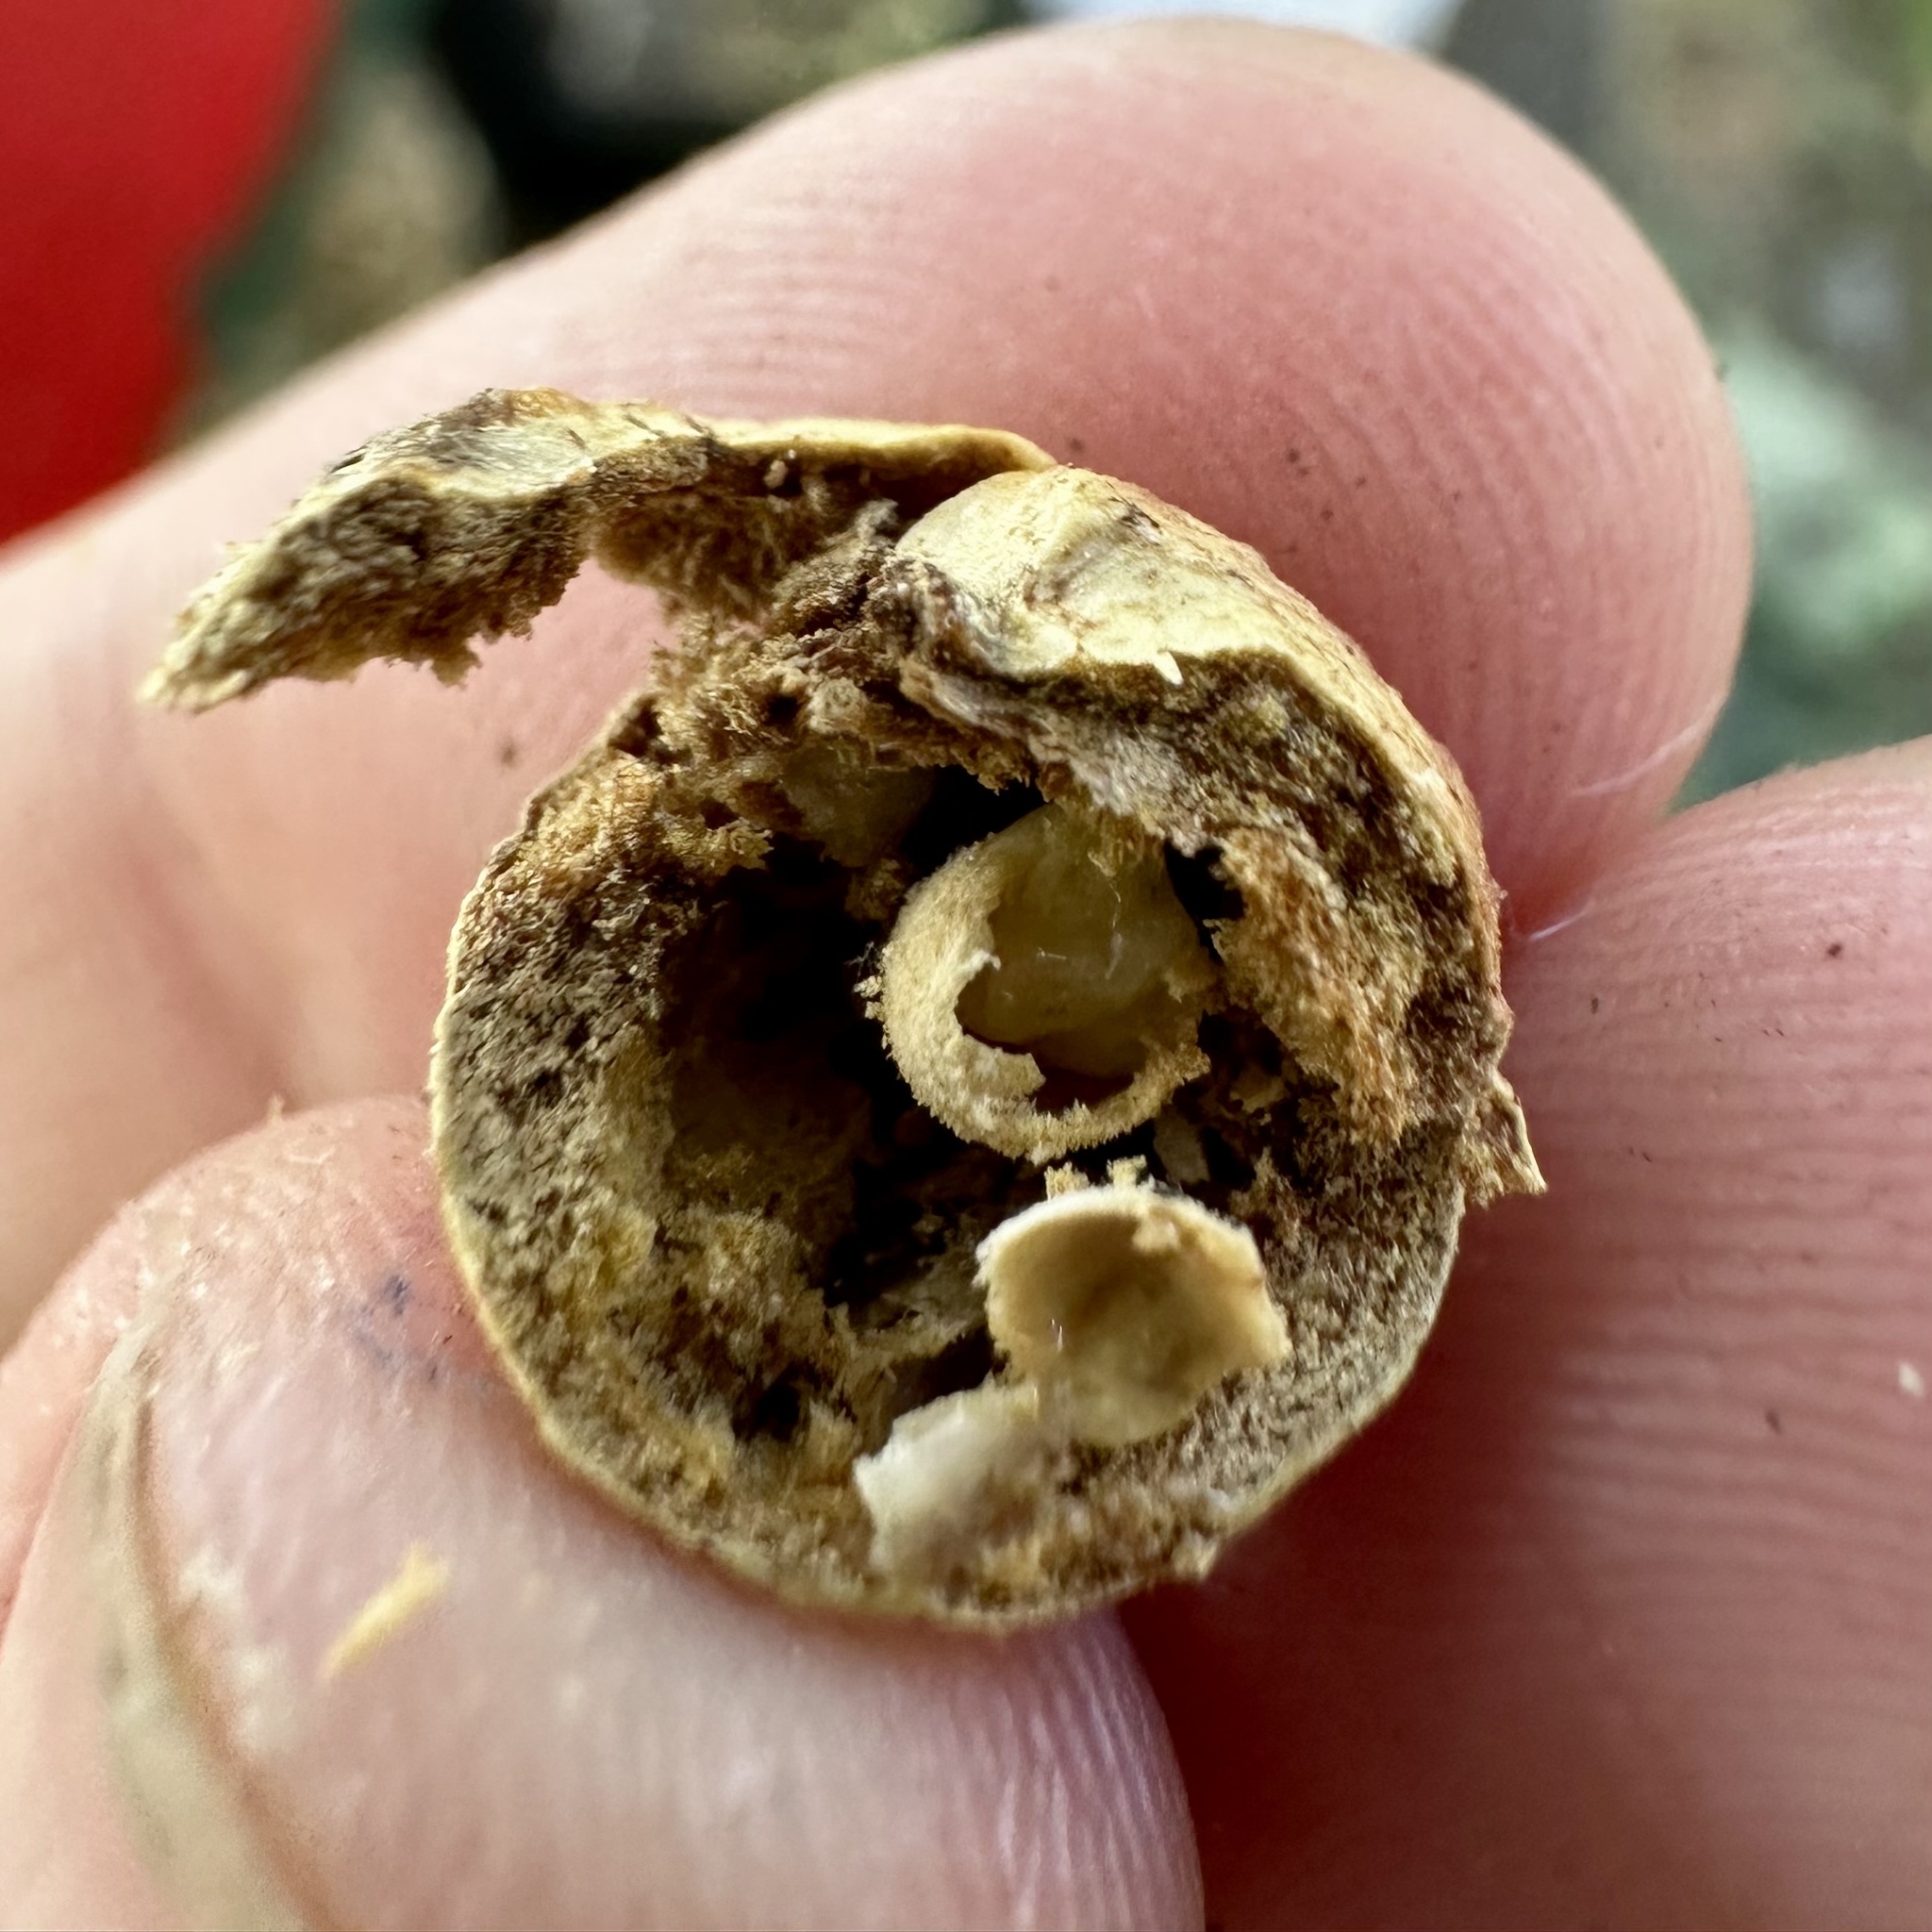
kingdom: Animalia
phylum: Arthropoda
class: Insecta
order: Hymenoptera
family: Cynipidae
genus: Disholcaspis
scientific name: Disholcaspis quercusglobulus
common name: Round bullet gall wasp
